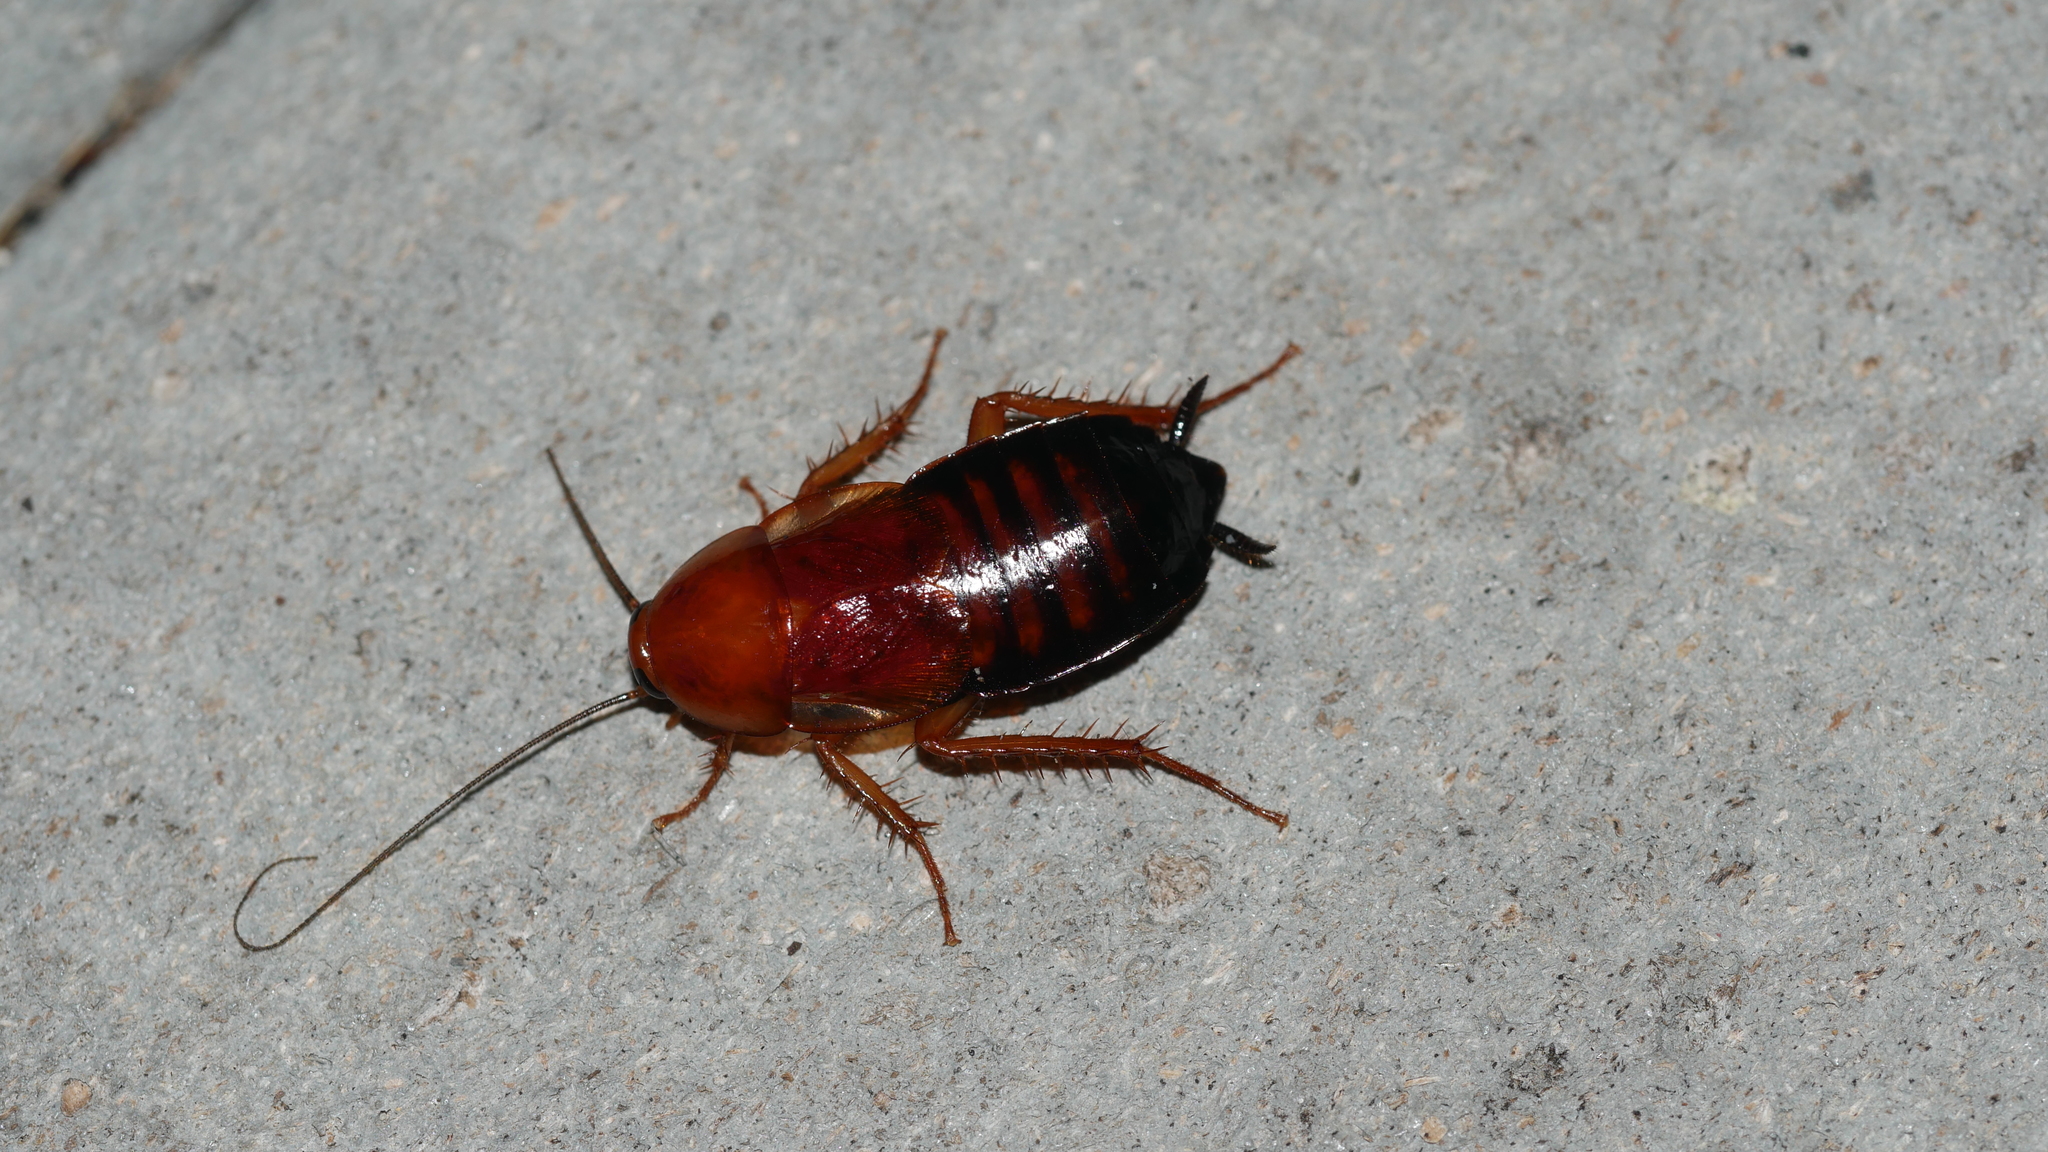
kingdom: Animalia
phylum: Arthropoda
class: Insecta
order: Blattodea
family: Ectobiidae
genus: Parcoblatta
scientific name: Parcoblatta lata
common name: Broad wood cockroach
